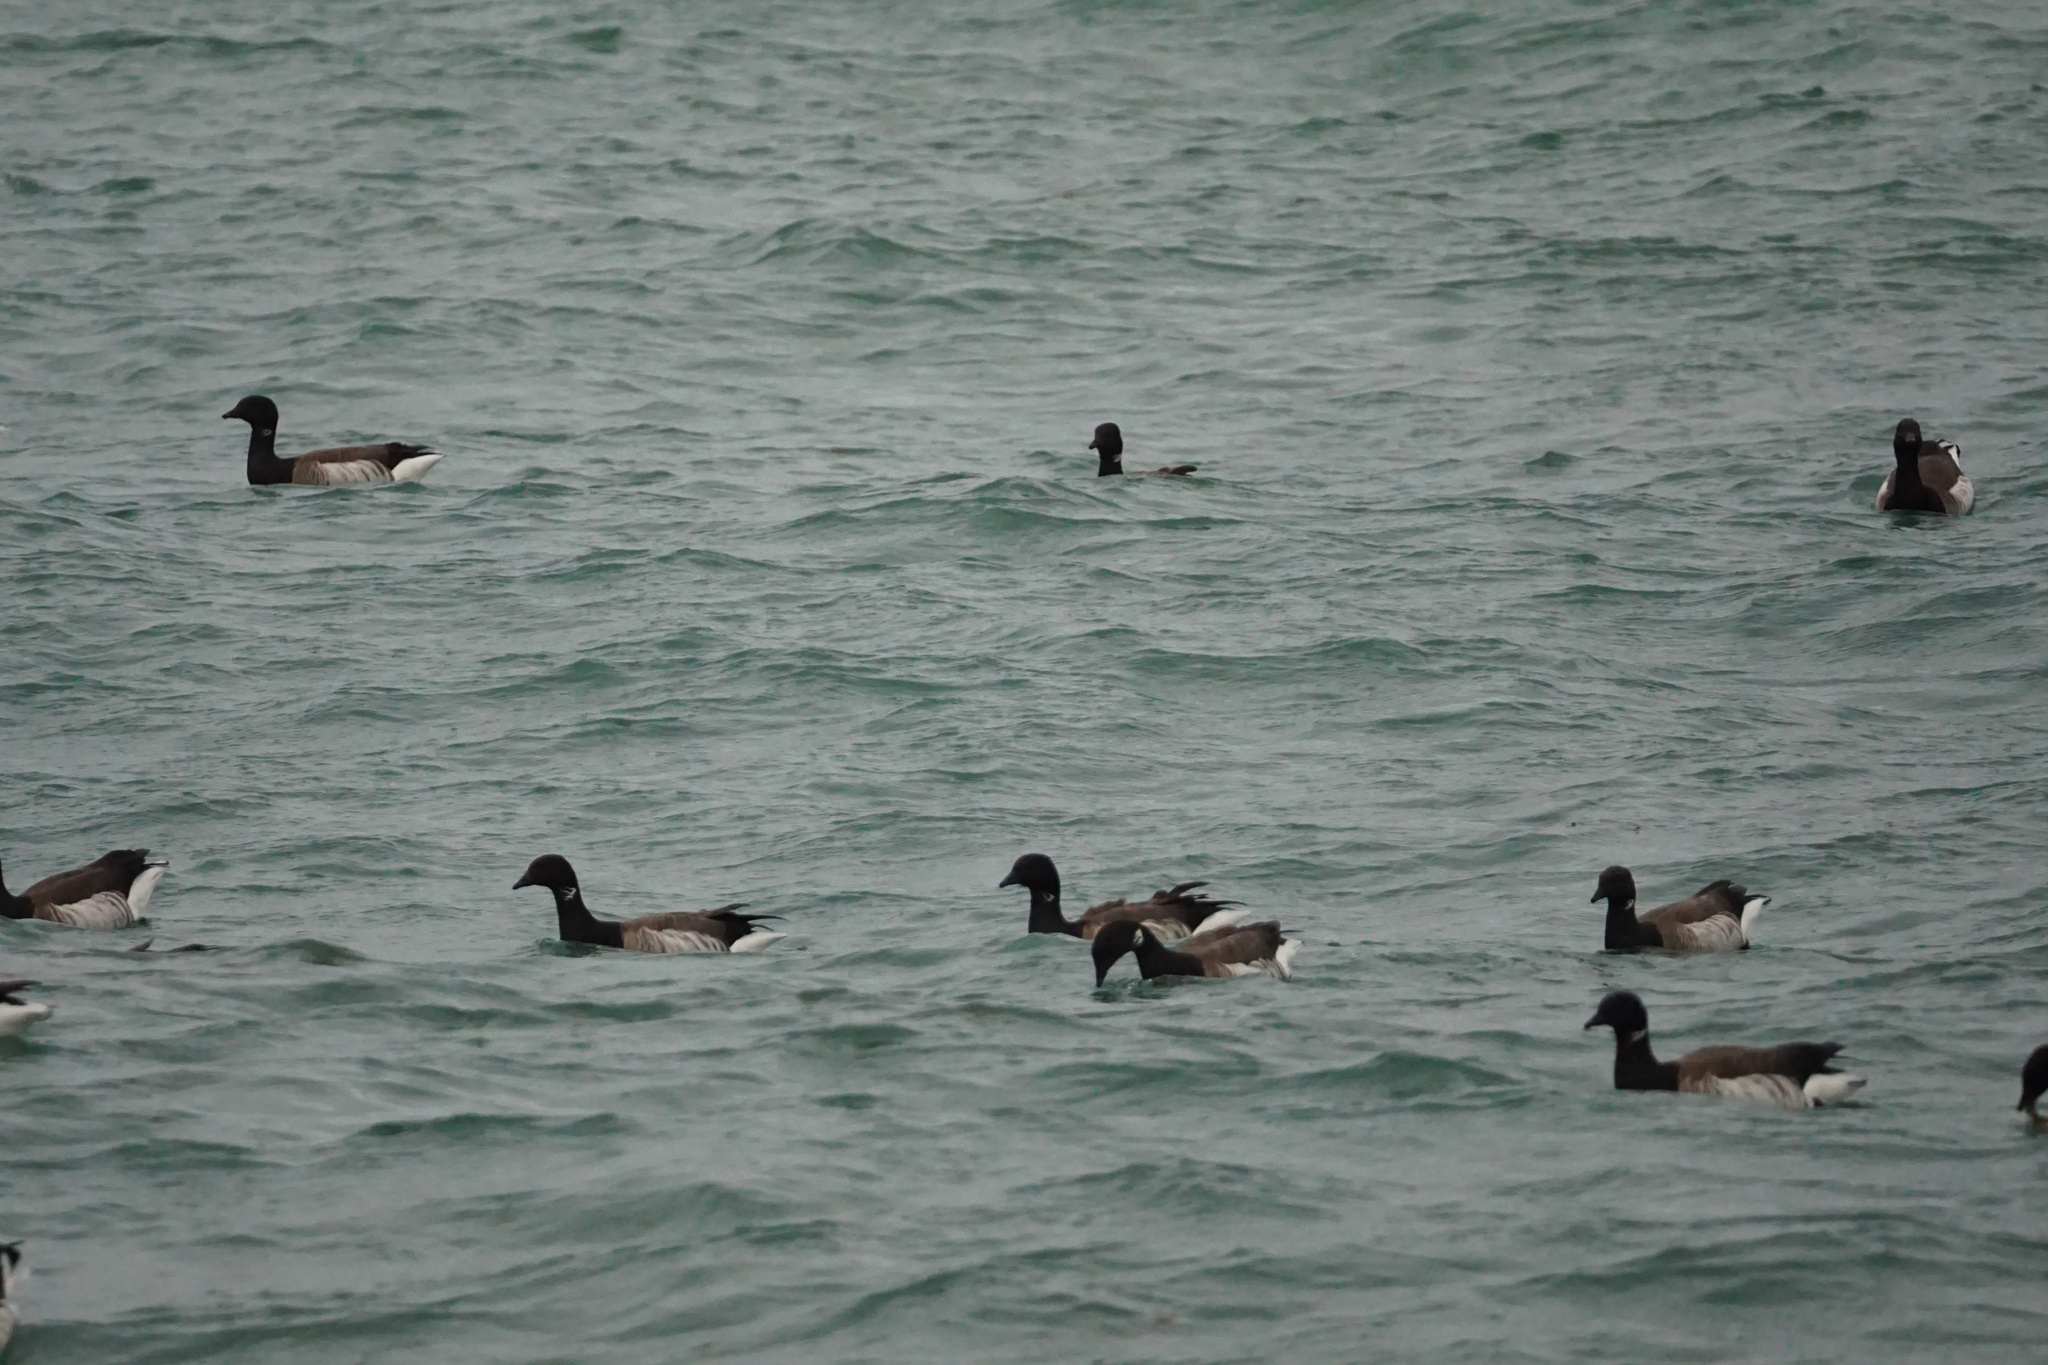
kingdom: Animalia
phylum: Chordata
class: Aves
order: Anseriformes
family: Anatidae
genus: Branta
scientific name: Branta bernicla
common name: Brant goose
